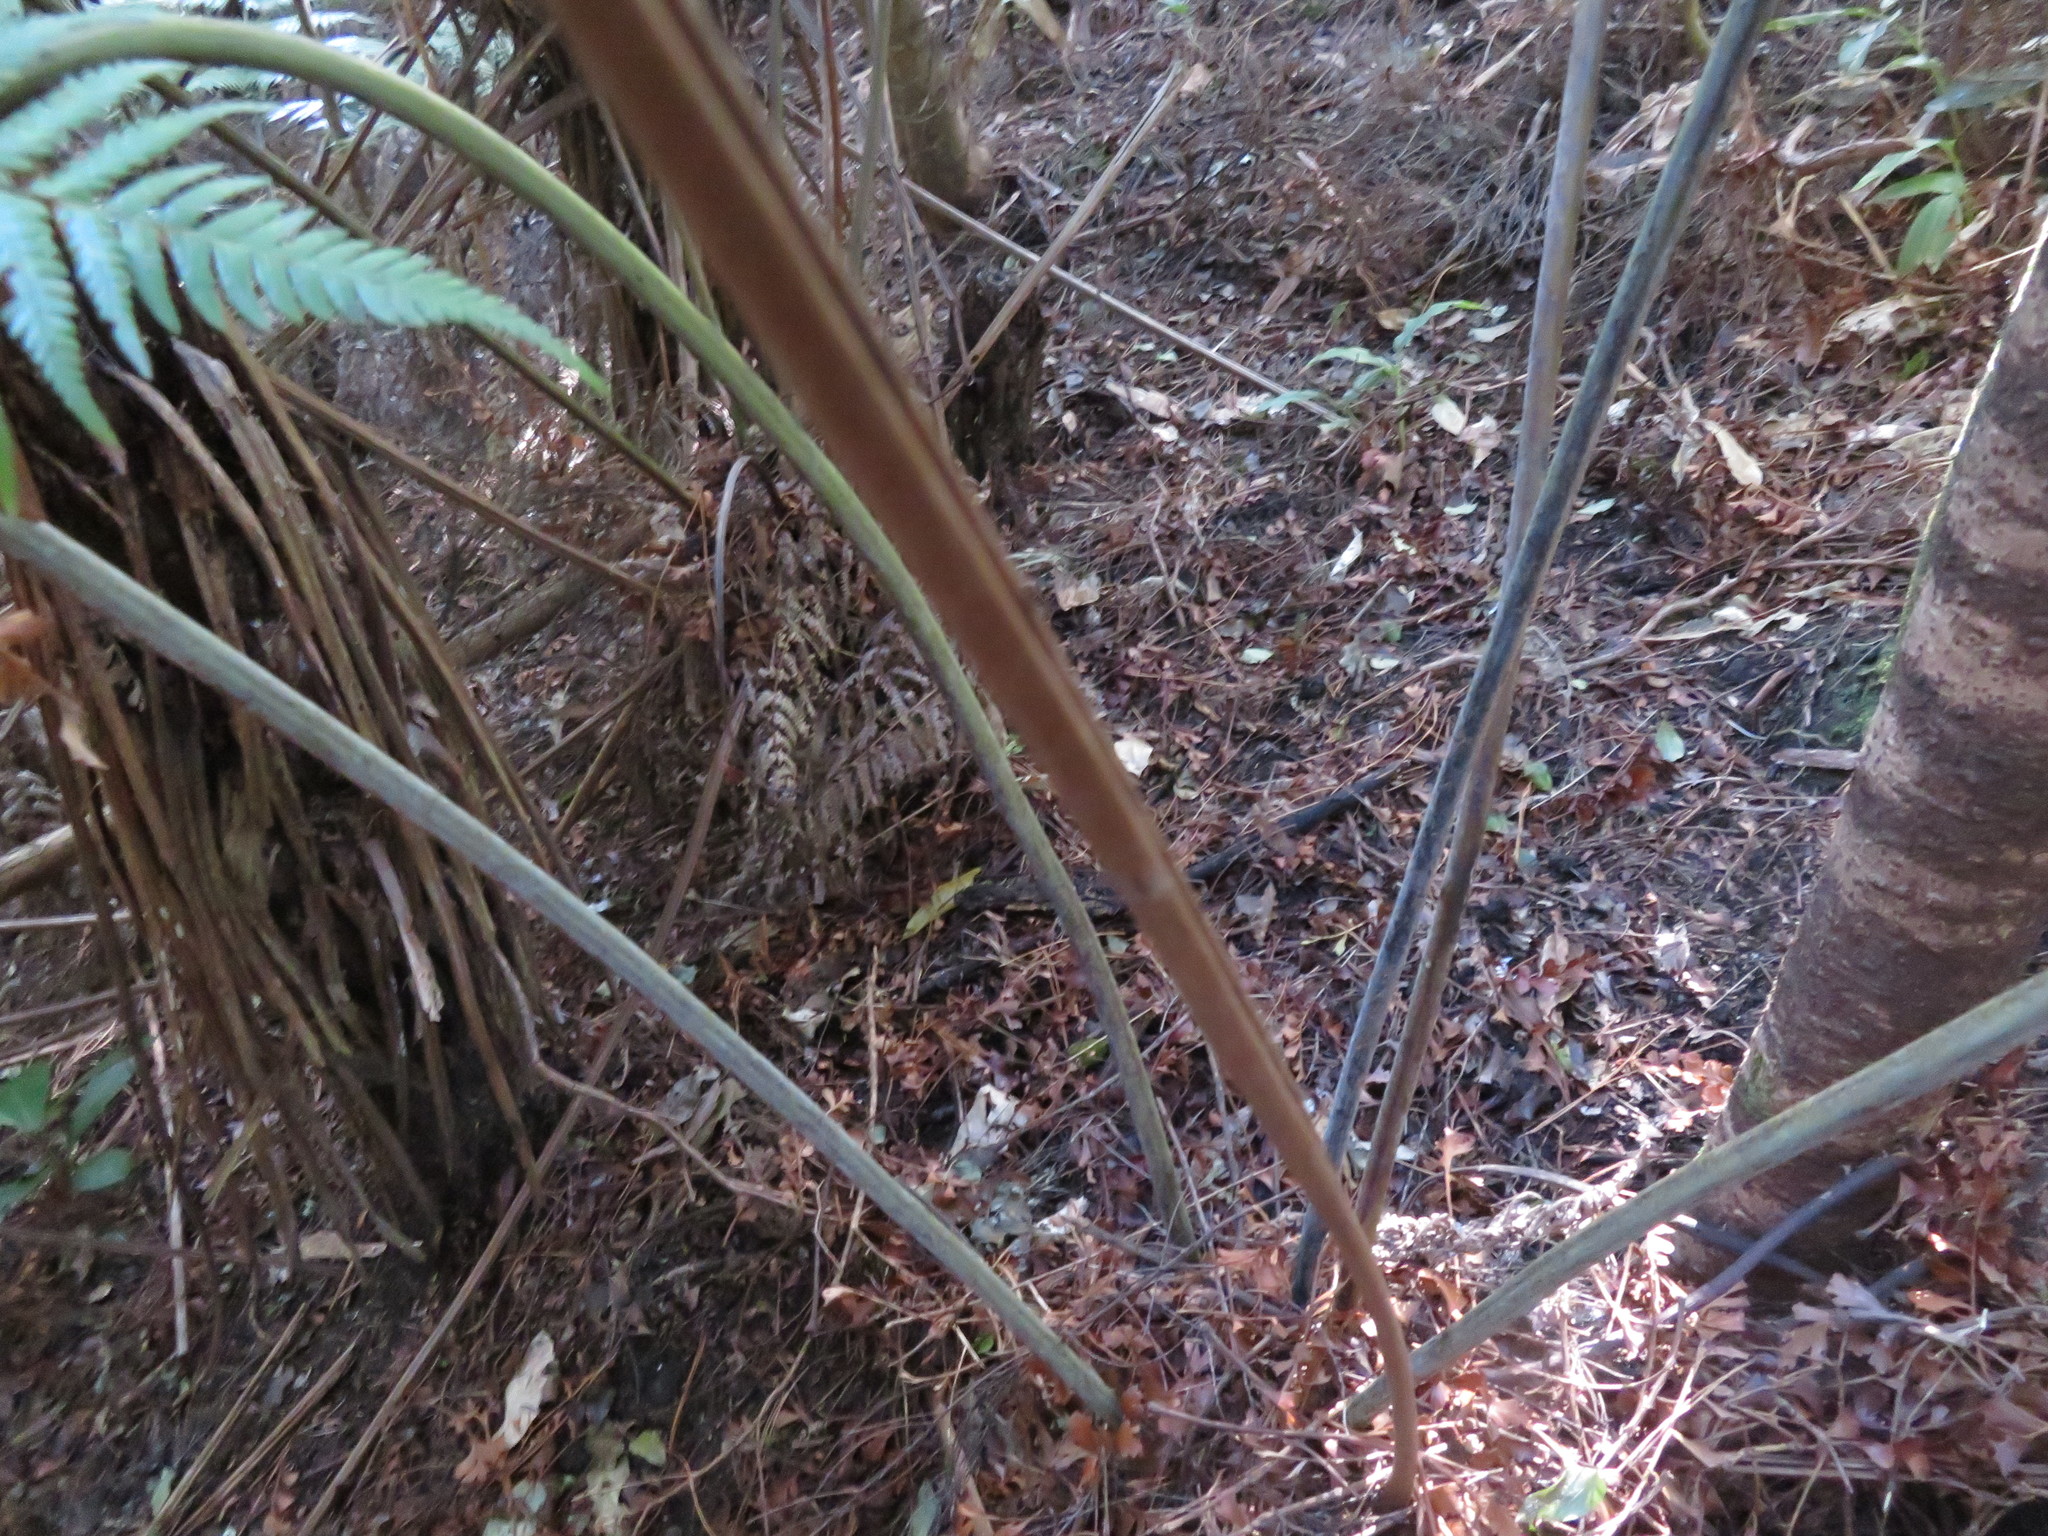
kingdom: Plantae
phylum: Tracheophyta
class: Polypodiopsida
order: Cyatheales
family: Cyatheaceae
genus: Alsophila
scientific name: Alsophila dealbata
